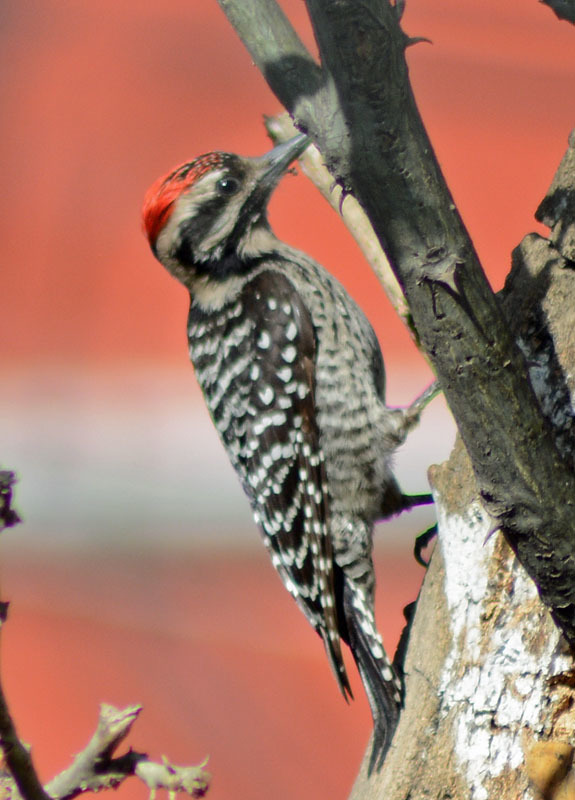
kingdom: Animalia
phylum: Chordata
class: Aves
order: Piciformes
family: Picidae
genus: Dryobates
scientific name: Dryobates scalaris
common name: Ladder-backed woodpecker
